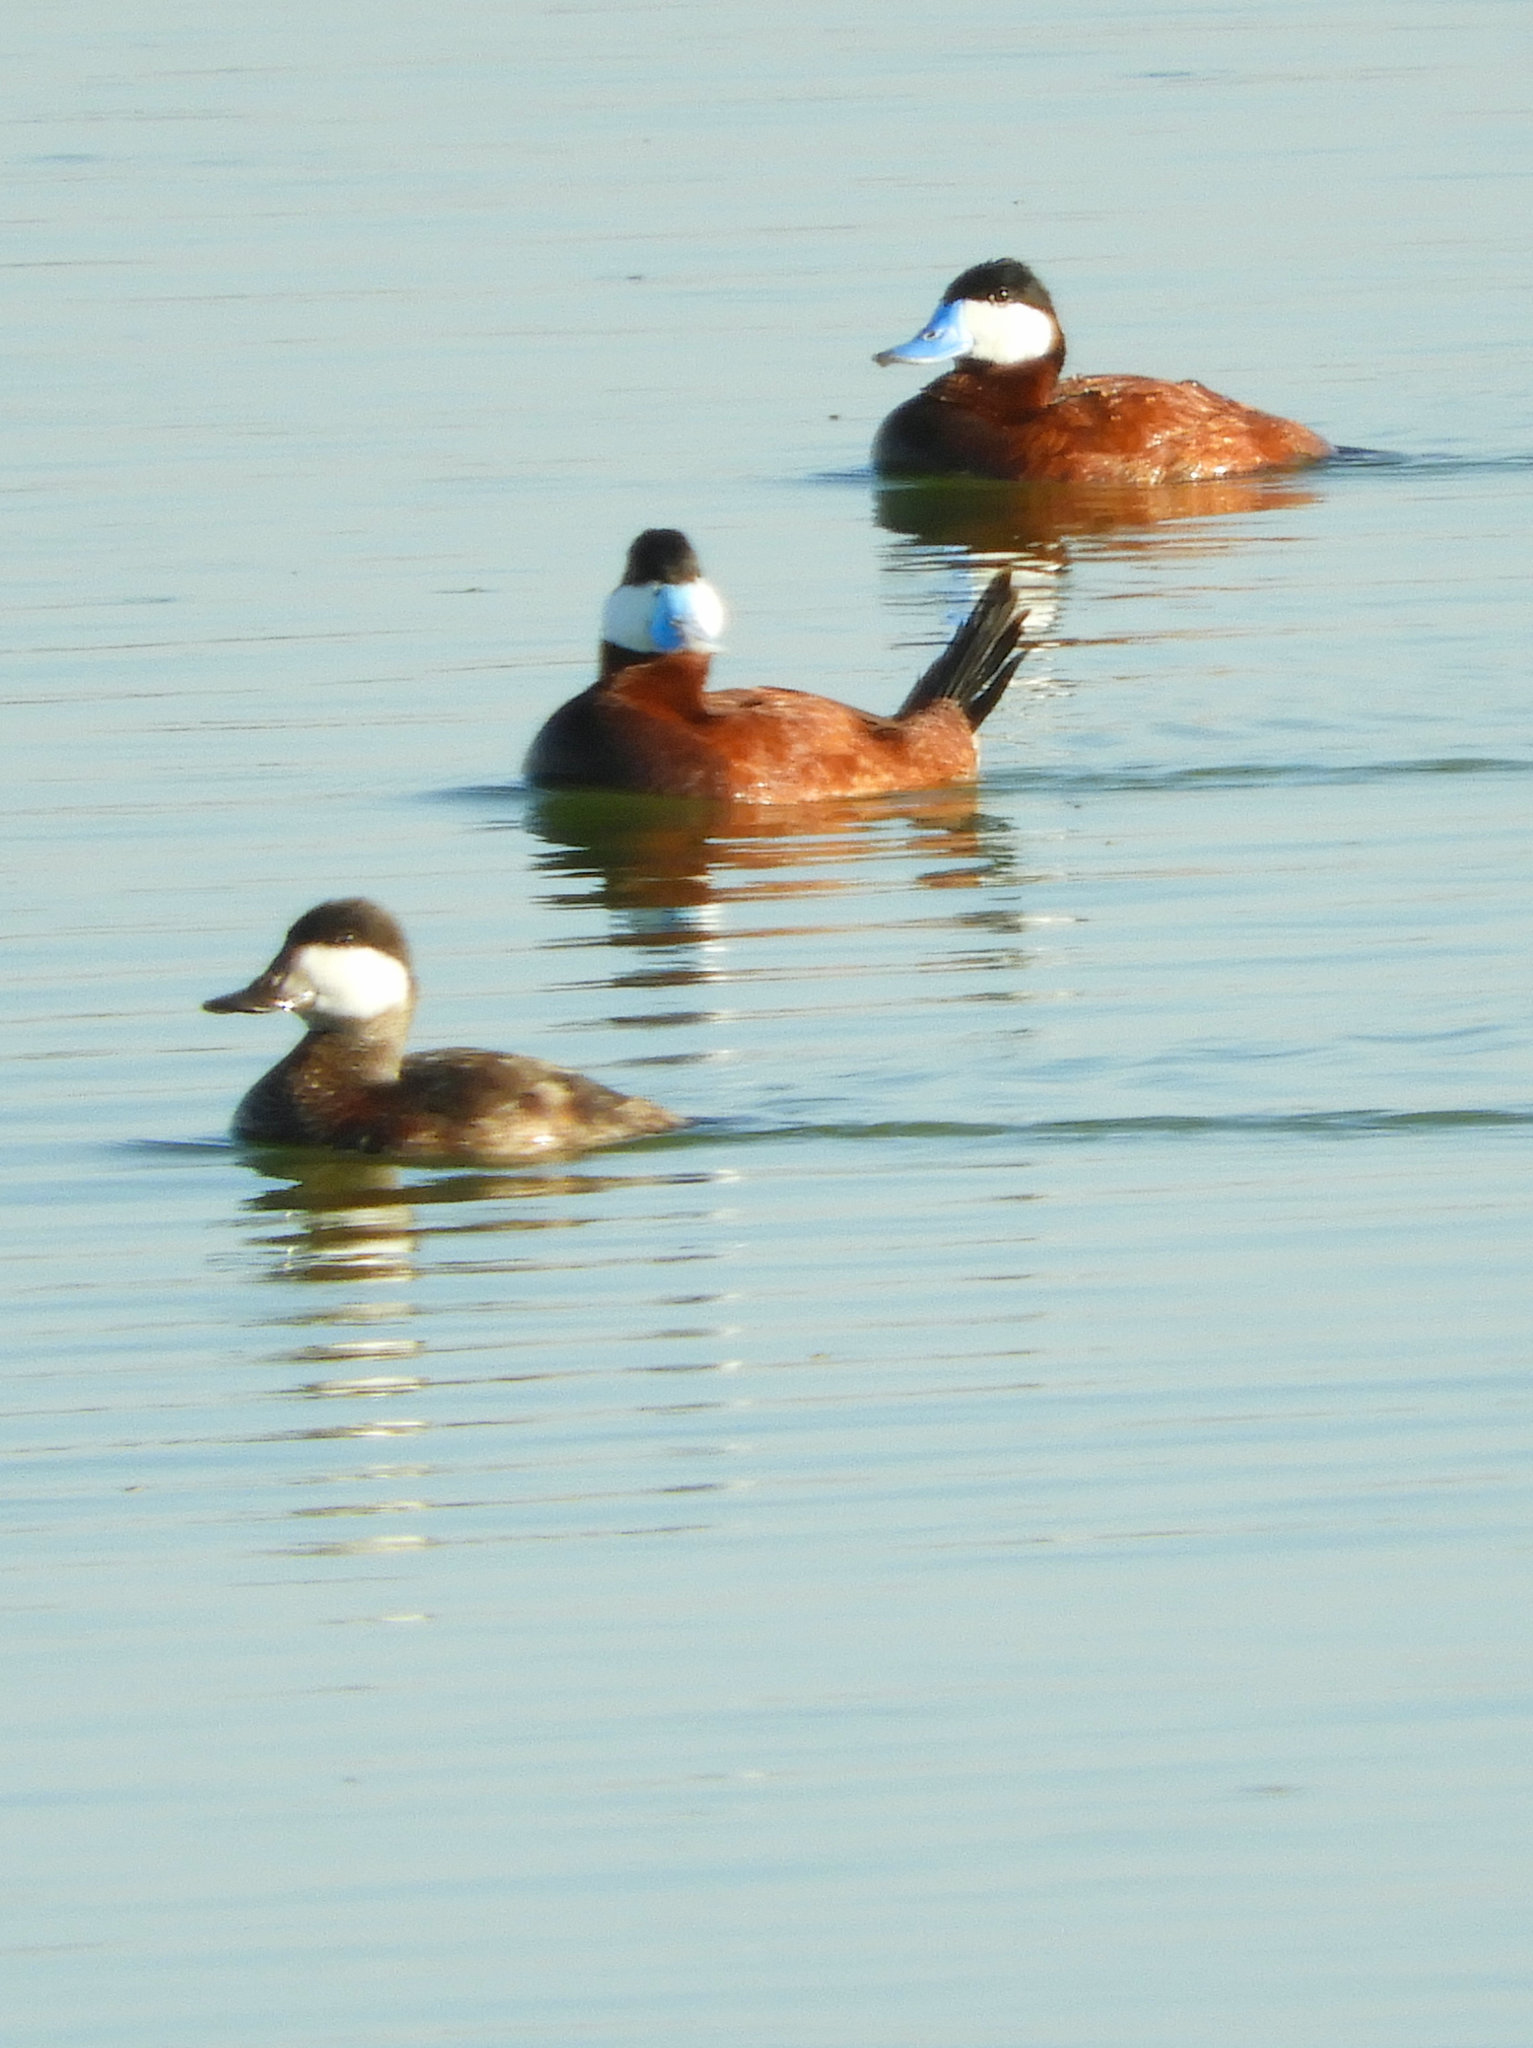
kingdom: Animalia
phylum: Chordata
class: Aves
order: Anseriformes
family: Anatidae
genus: Oxyura
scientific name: Oxyura jamaicensis
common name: Ruddy duck
